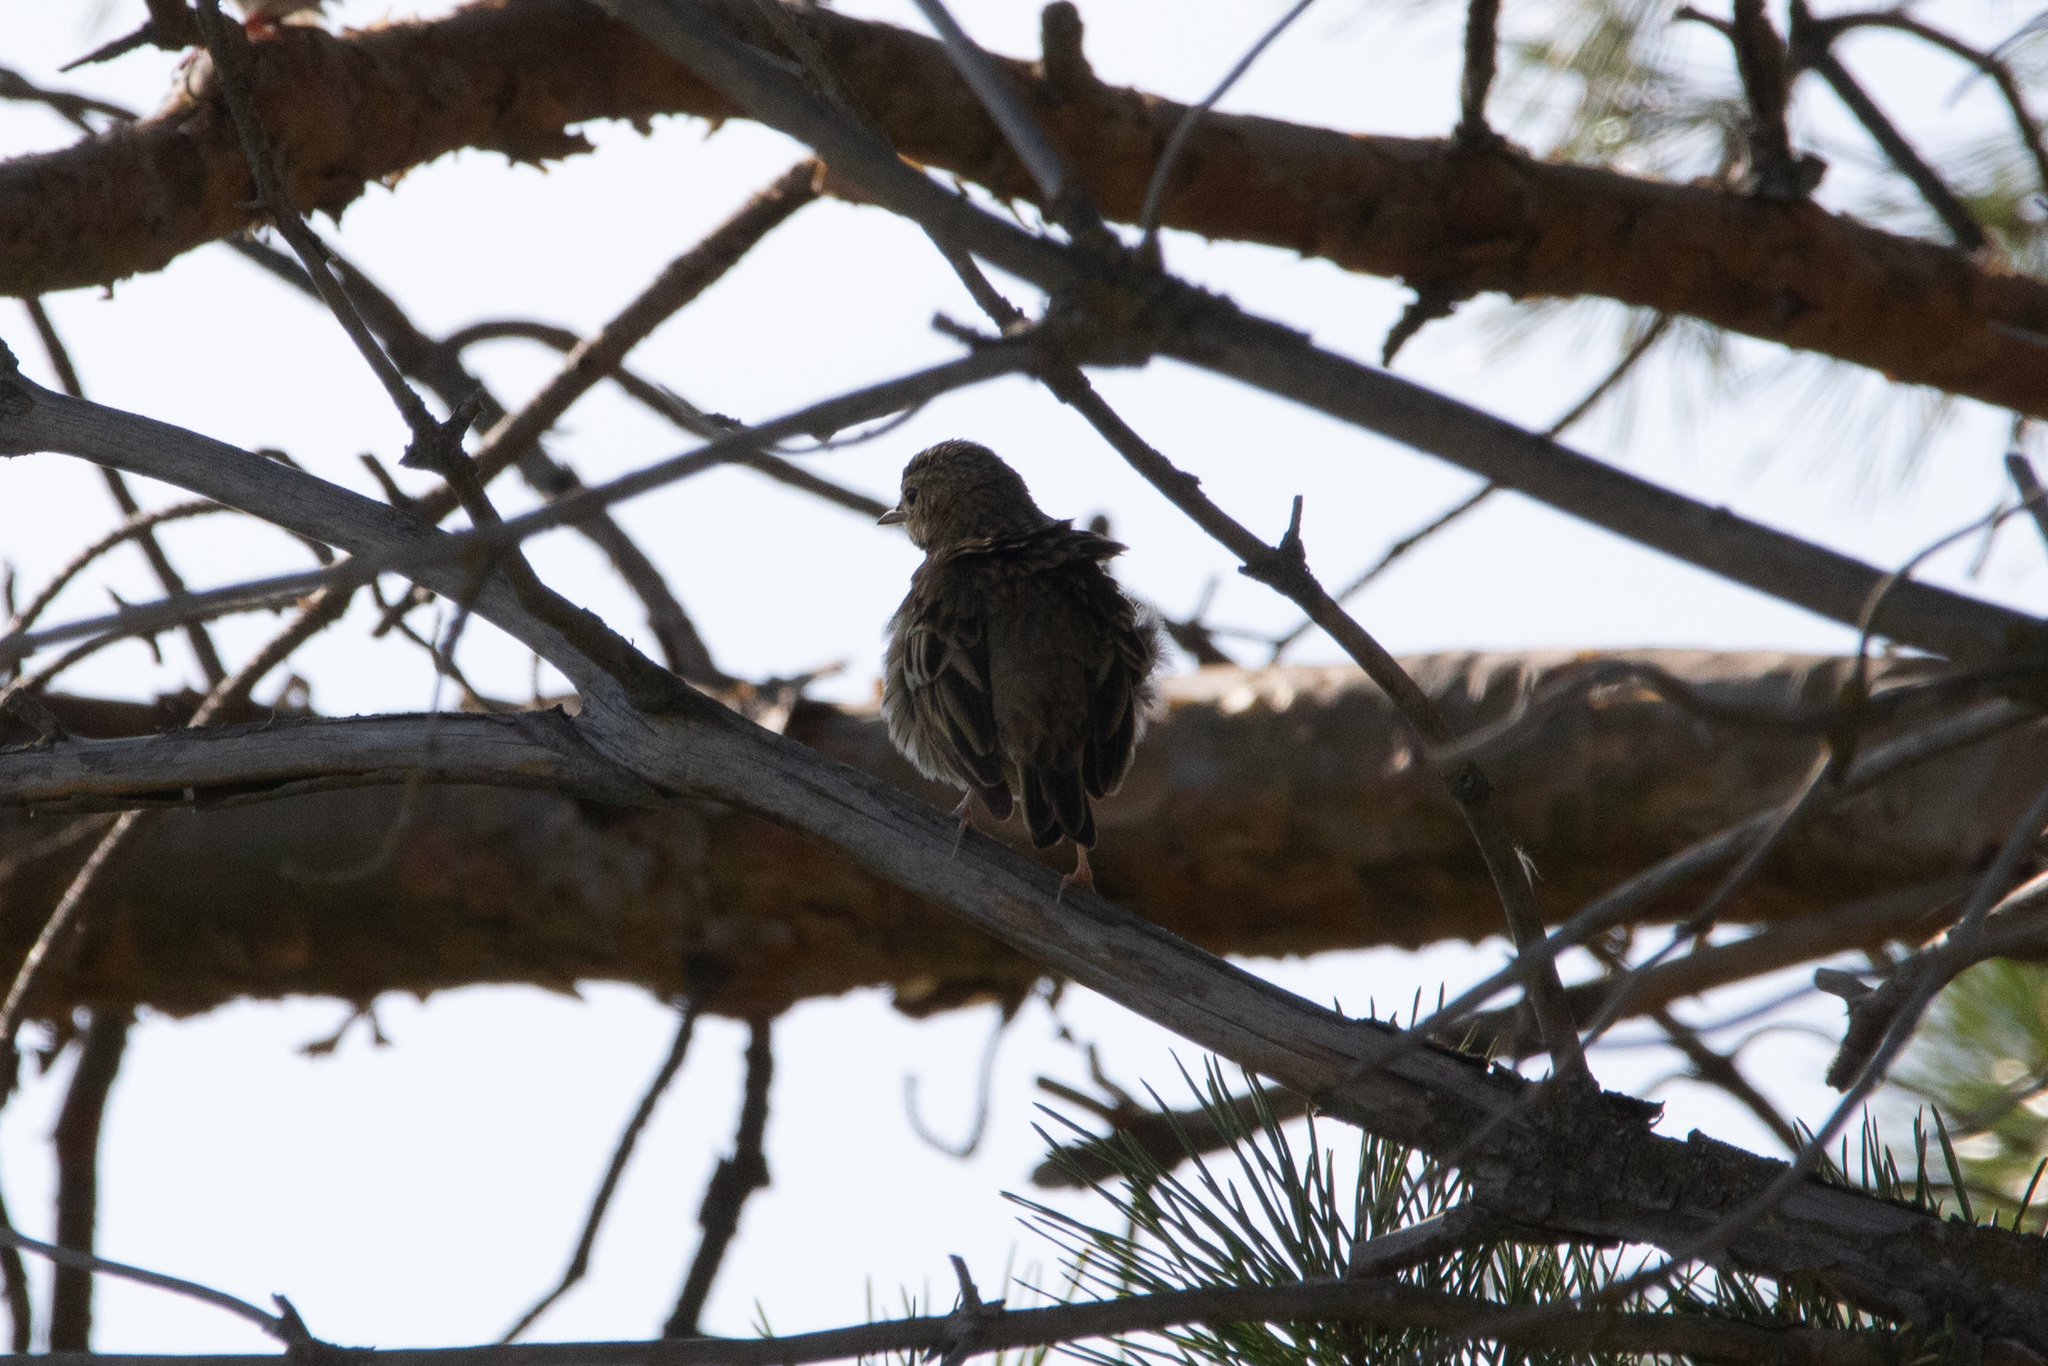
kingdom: Animalia
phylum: Chordata
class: Aves
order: Passeriformes
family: Motacillidae
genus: Anthus
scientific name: Anthus trivialis
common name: Tree pipit
